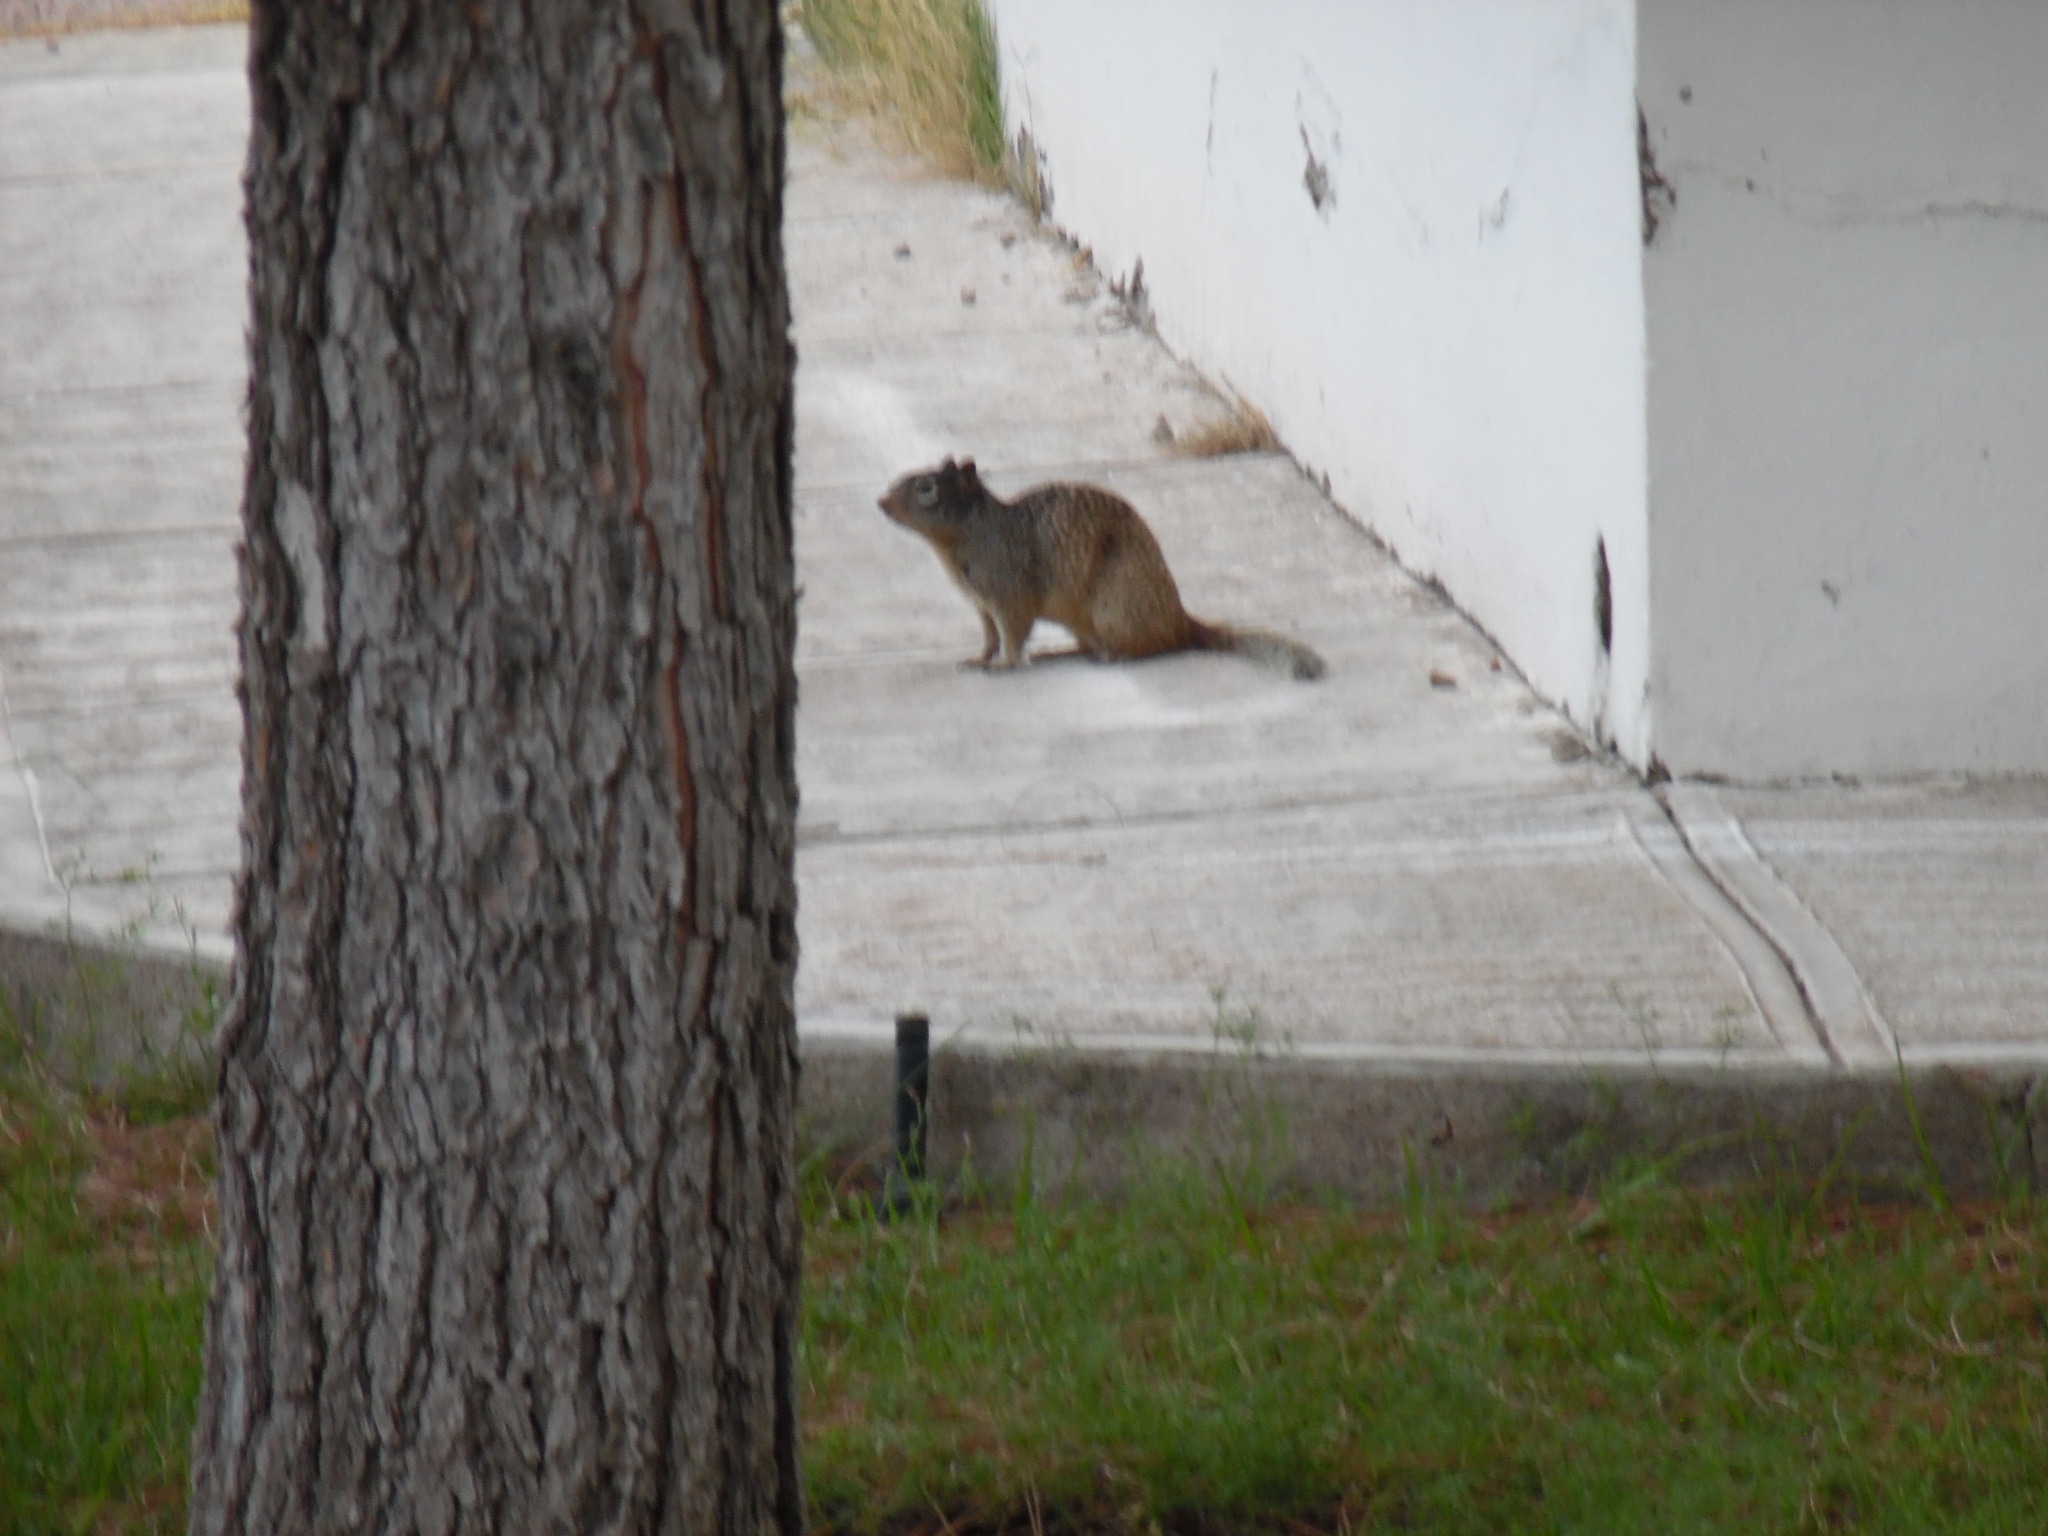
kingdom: Animalia
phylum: Chordata
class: Mammalia
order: Rodentia
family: Sciuridae
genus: Otospermophilus
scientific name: Otospermophilus variegatus
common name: Rock squirrel
